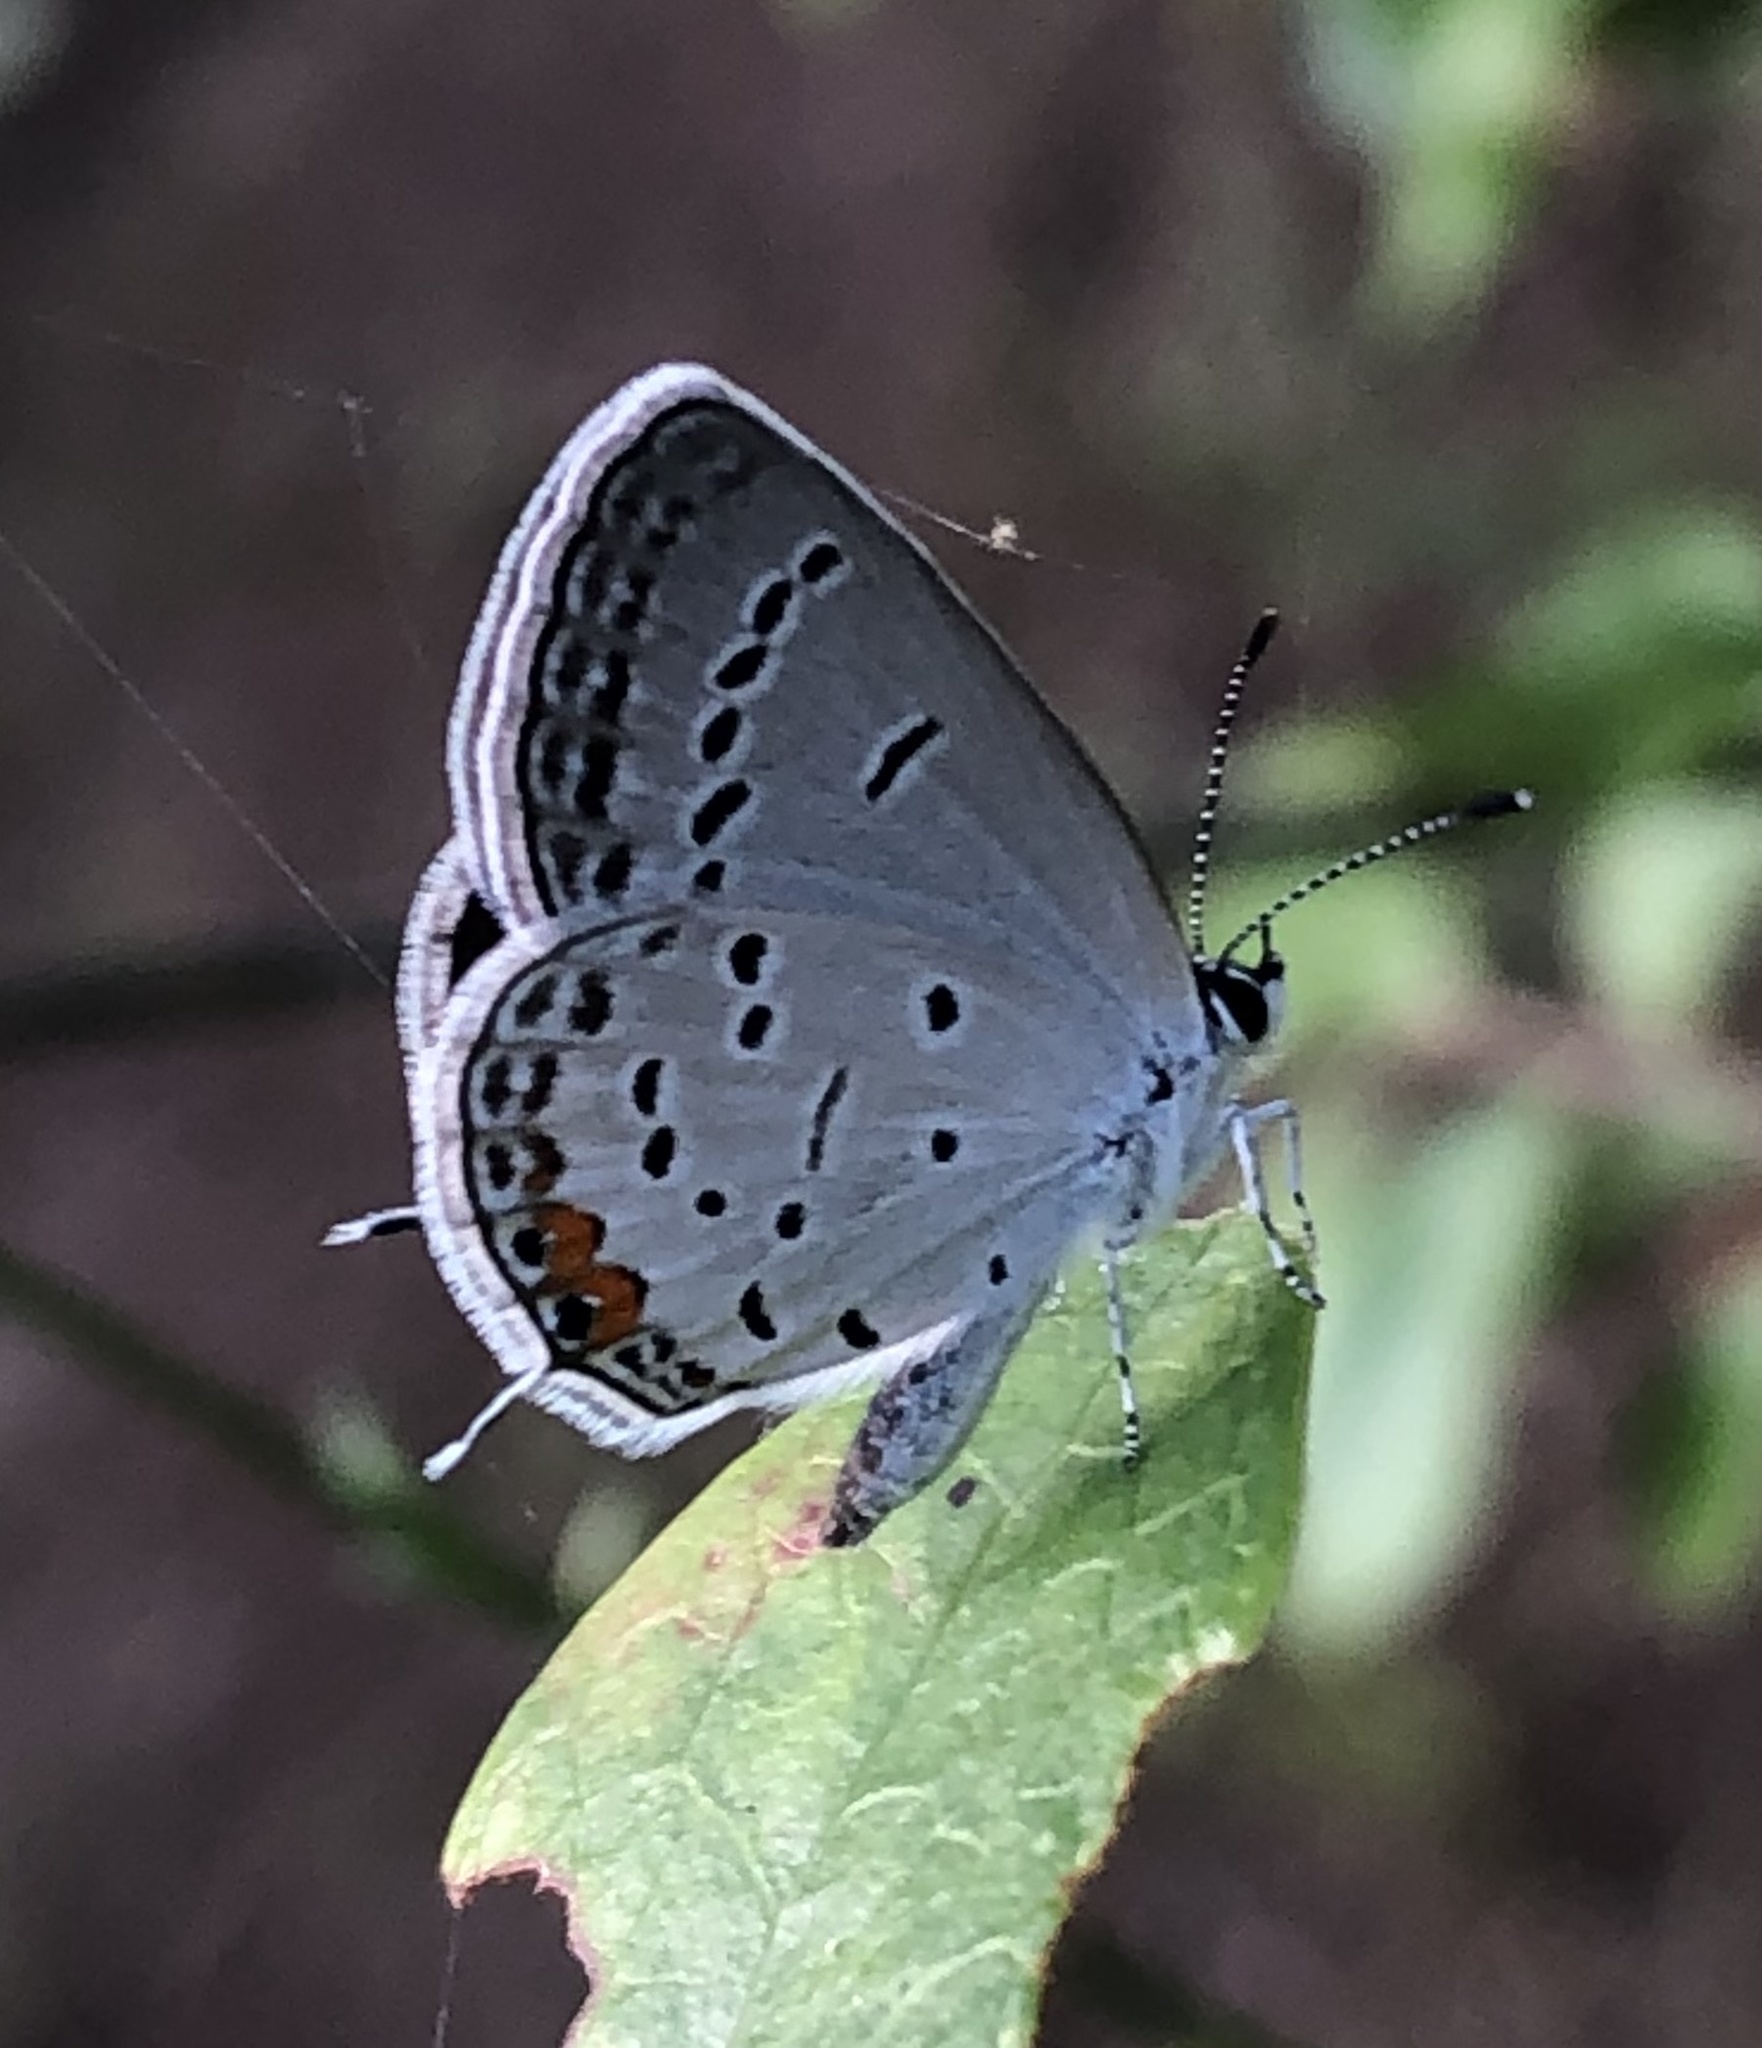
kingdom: Animalia
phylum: Arthropoda
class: Insecta
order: Lepidoptera
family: Lycaenidae
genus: Elkalyce
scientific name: Elkalyce comyntas
